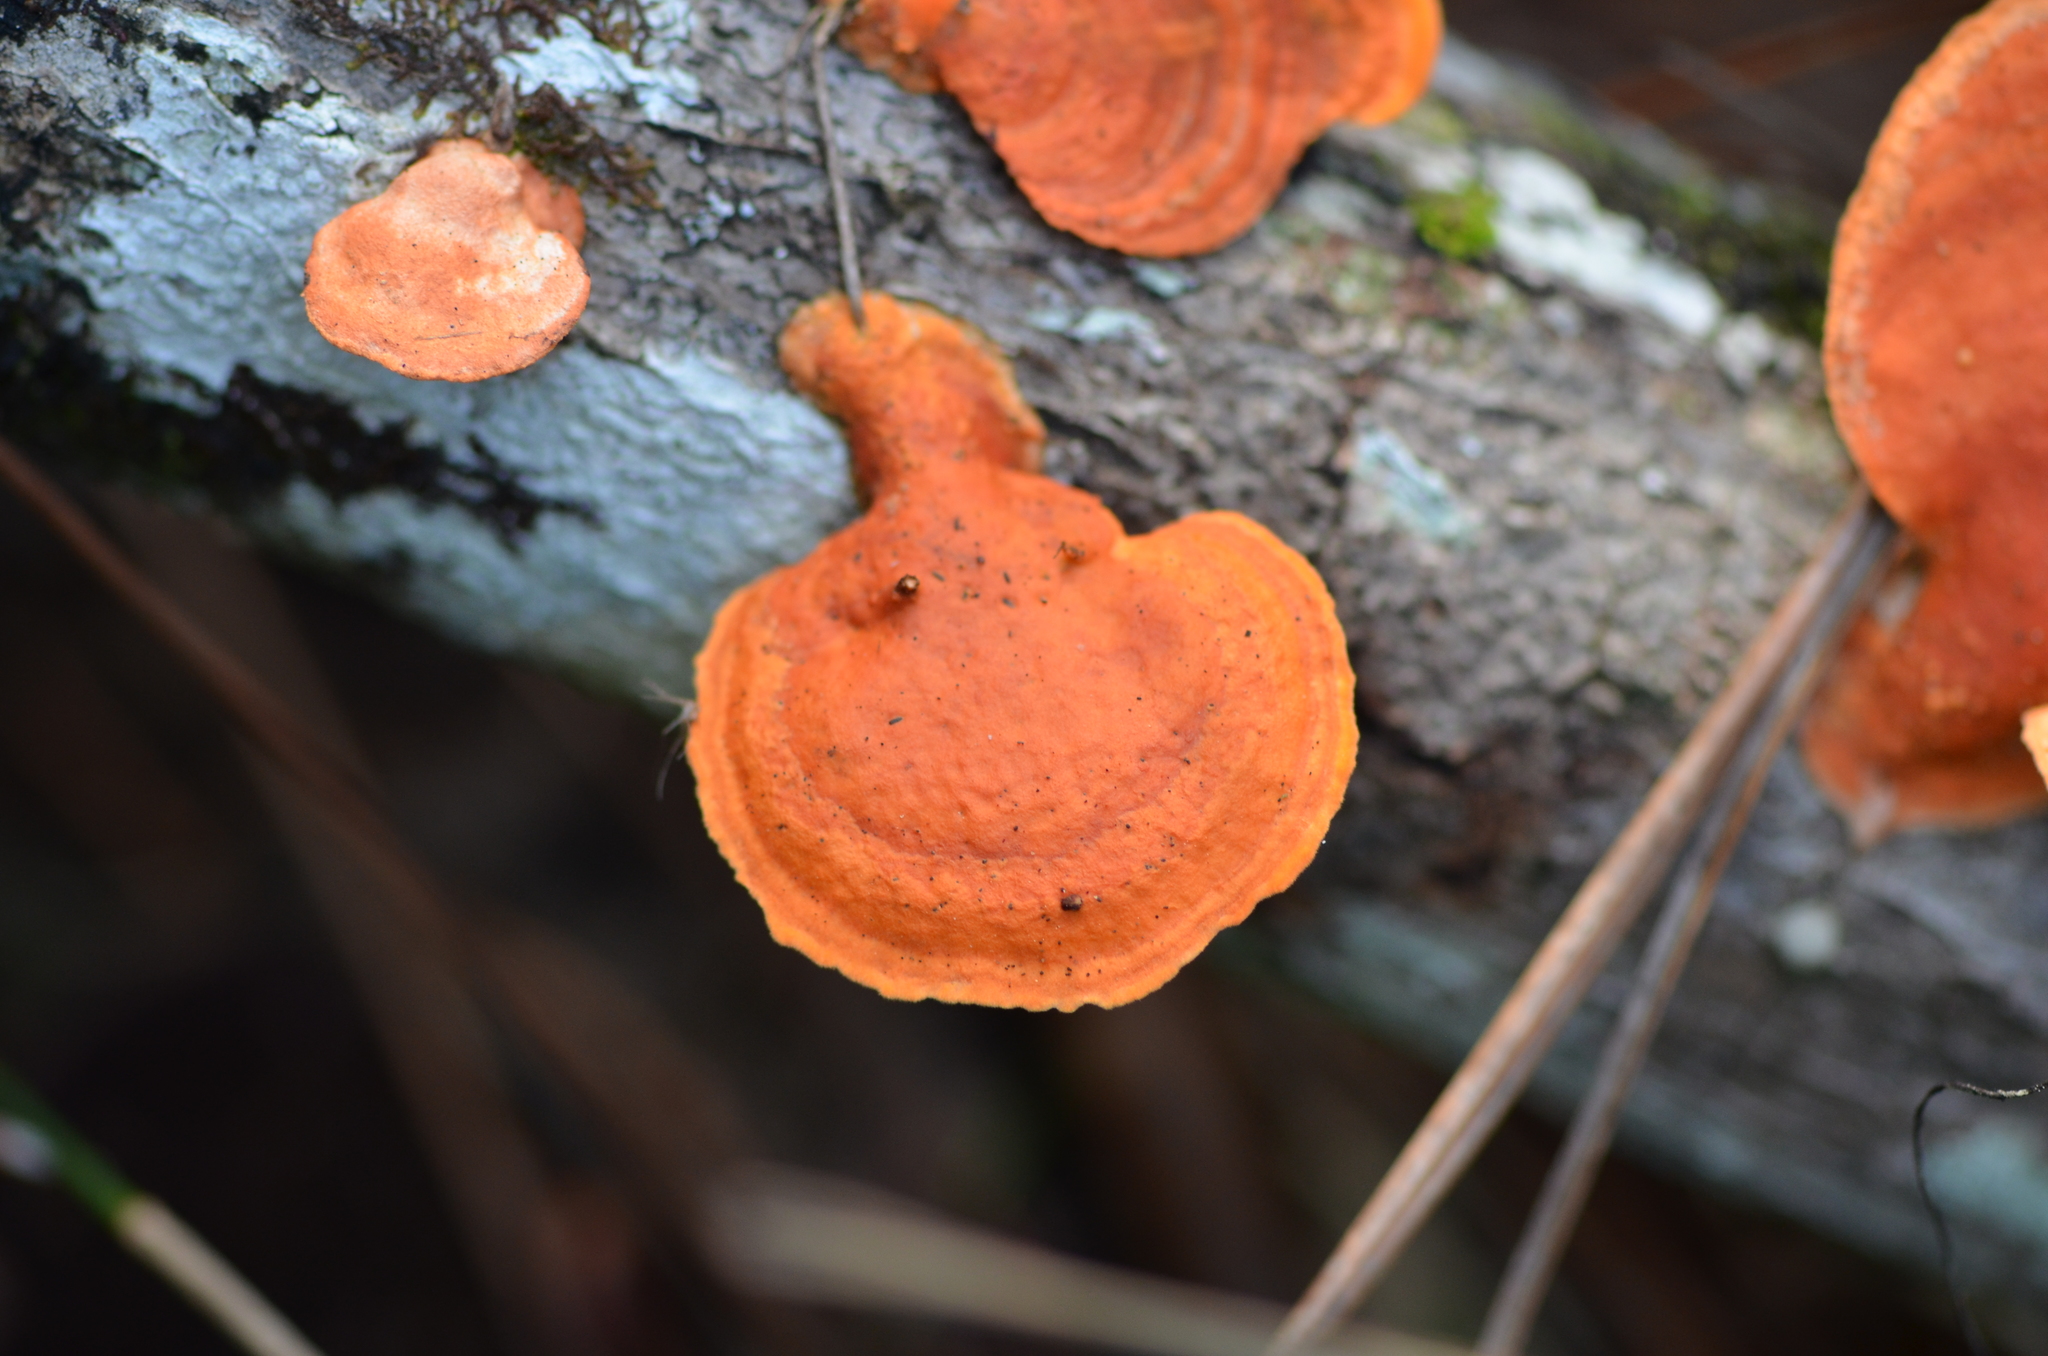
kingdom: Fungi
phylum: Basidiomycota
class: Agaricomycetes
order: Polyporales
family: Polyporaceae
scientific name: Polyporaceae
